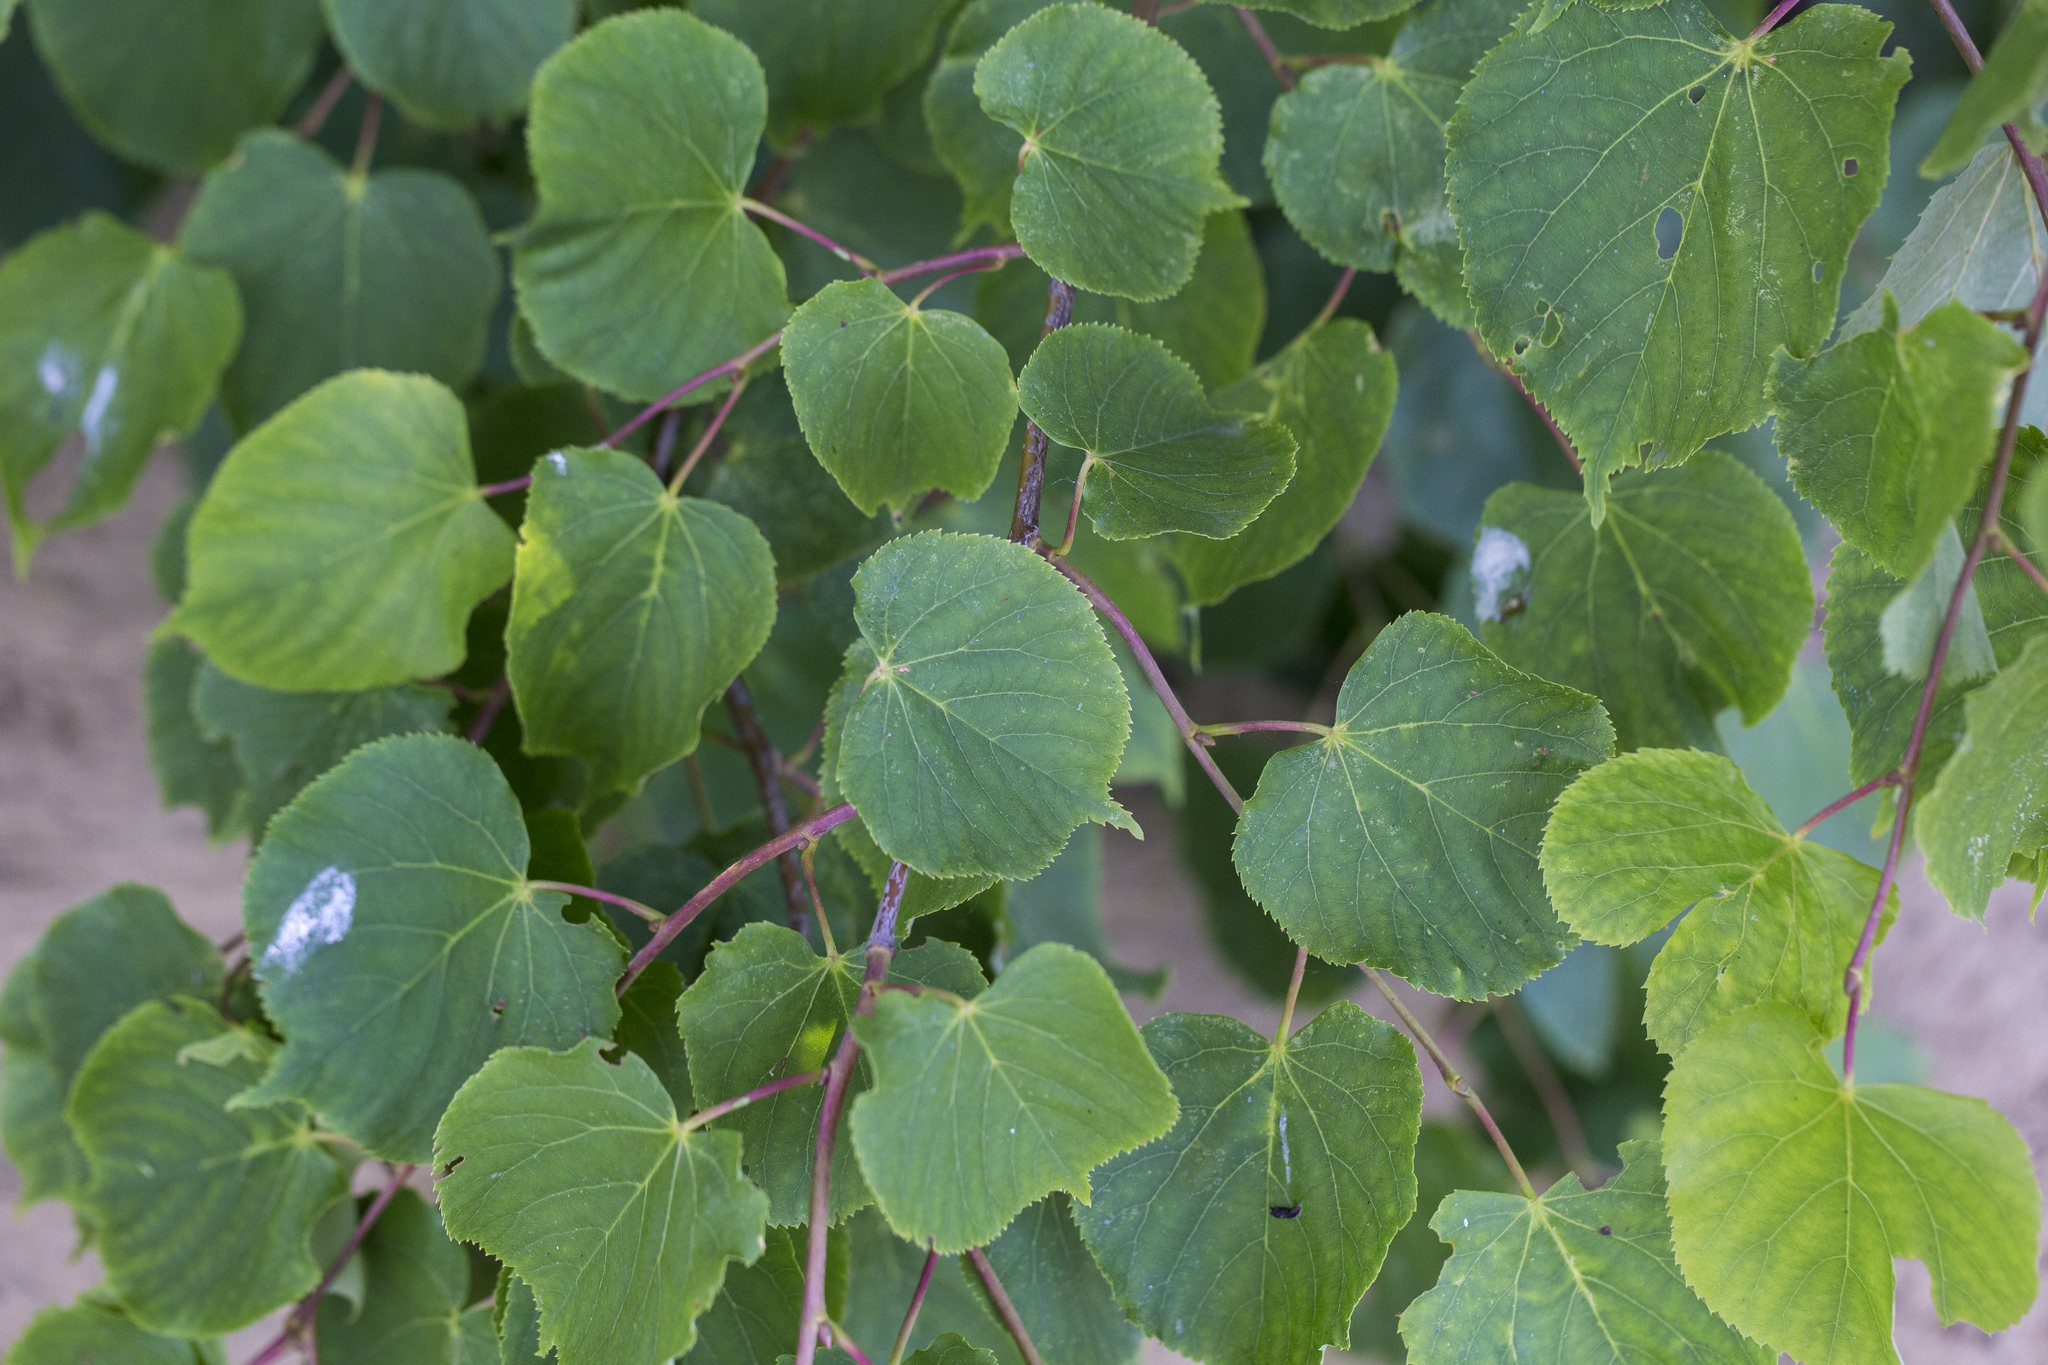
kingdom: Plantae
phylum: Tracheophyta
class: Magnoliopsida
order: Malvales
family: Malvaceae
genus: Tilia
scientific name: Tilia cordata
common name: Small-leaved lime
